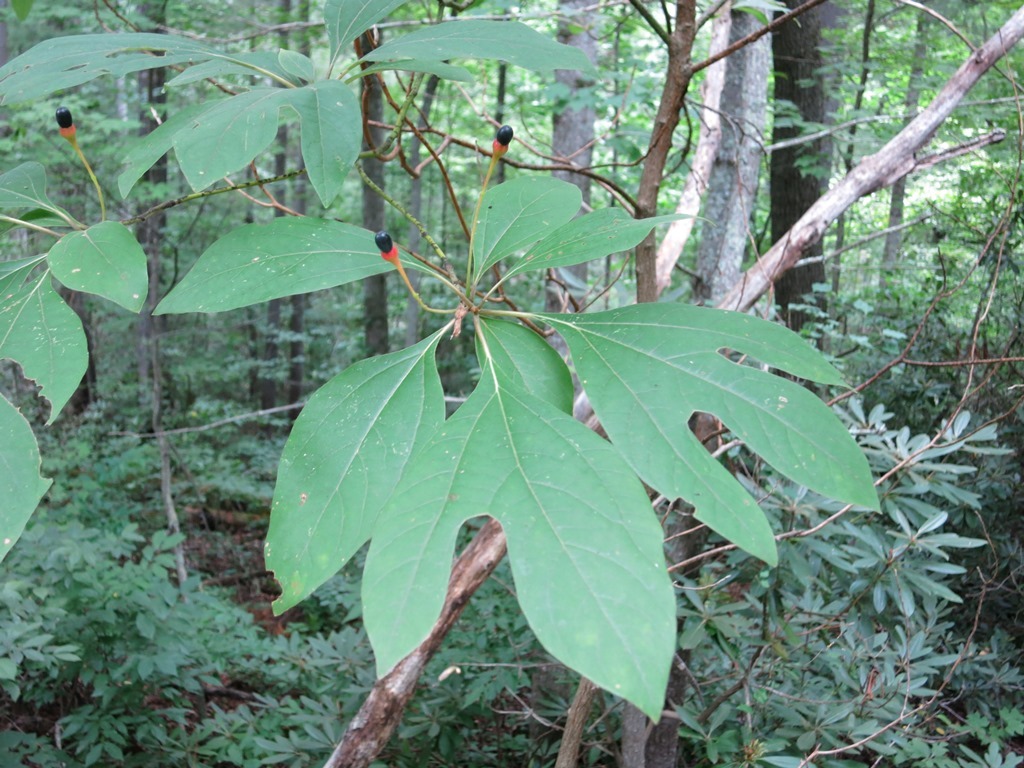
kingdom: Plantae
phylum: Tracheophyta
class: Magnoliopsida
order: Laurales
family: Lauraceae
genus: Sassafras
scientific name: Sassafras albidum
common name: Sassafras
